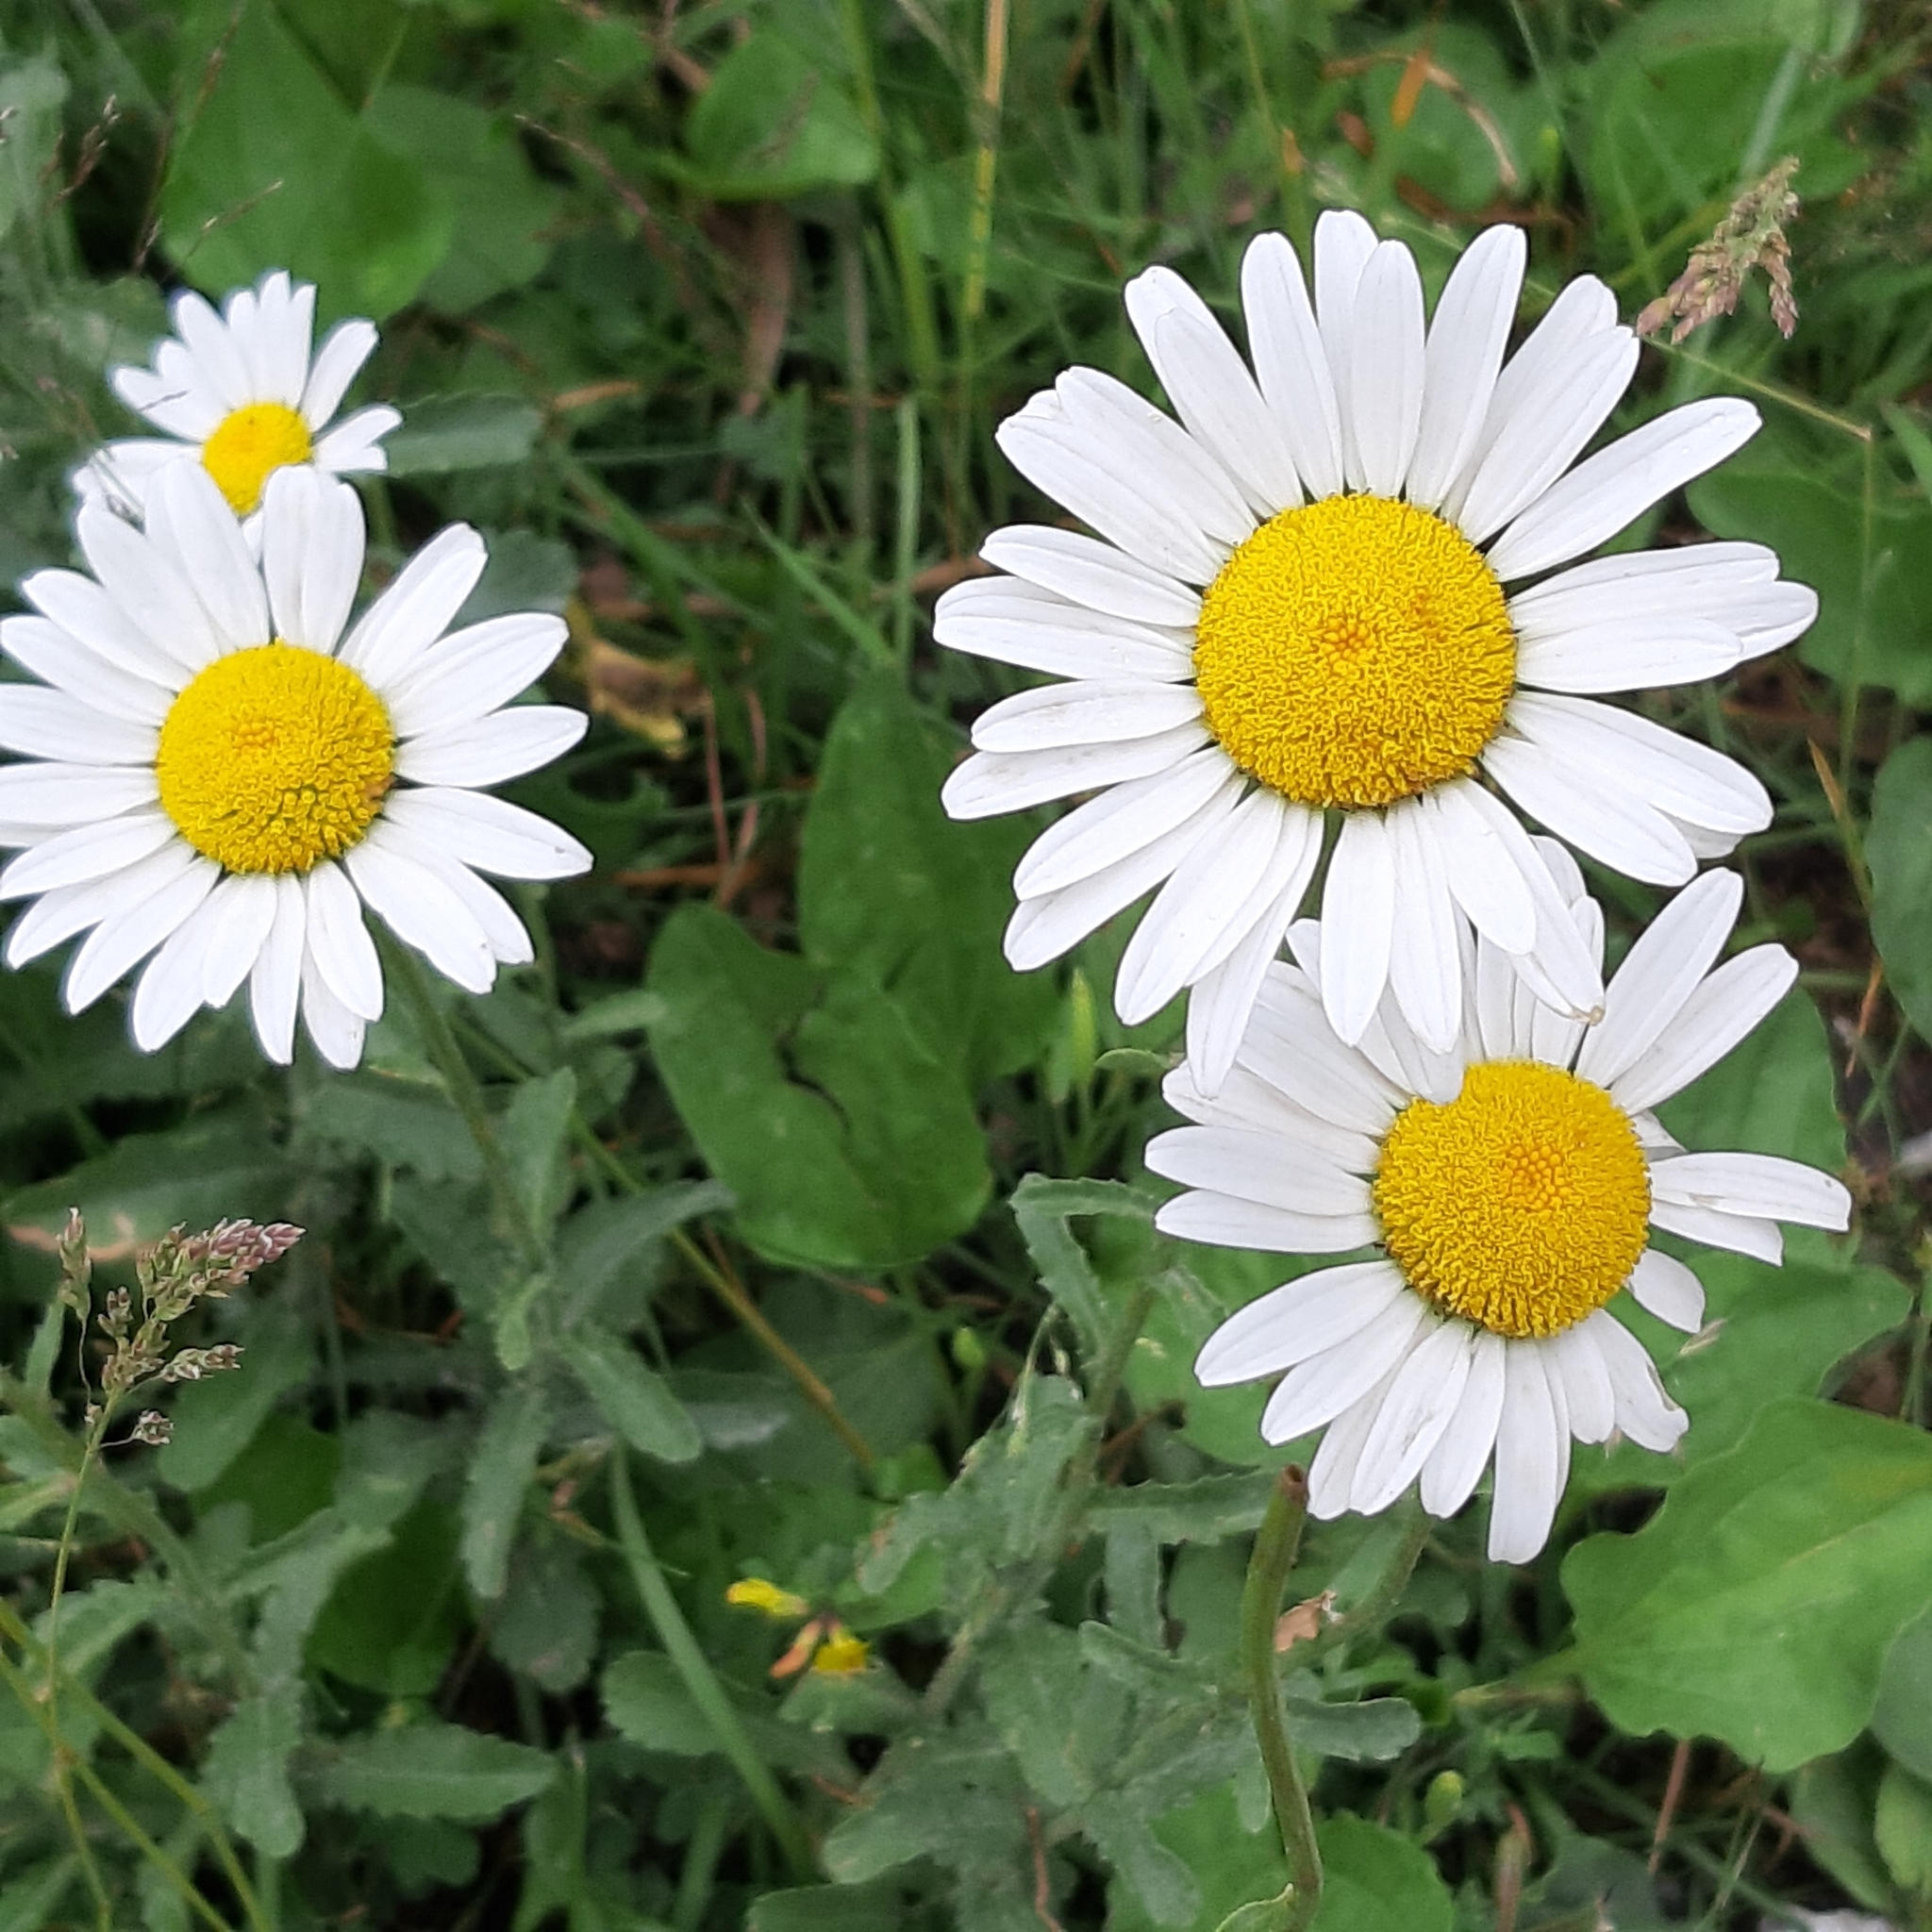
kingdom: Plantae
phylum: Tracheophyta
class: Magnoliopsida
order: Asterales
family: Asteraceae
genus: Leucanthemum
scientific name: Leucanthemum vulgare
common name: Oxeye daisy
